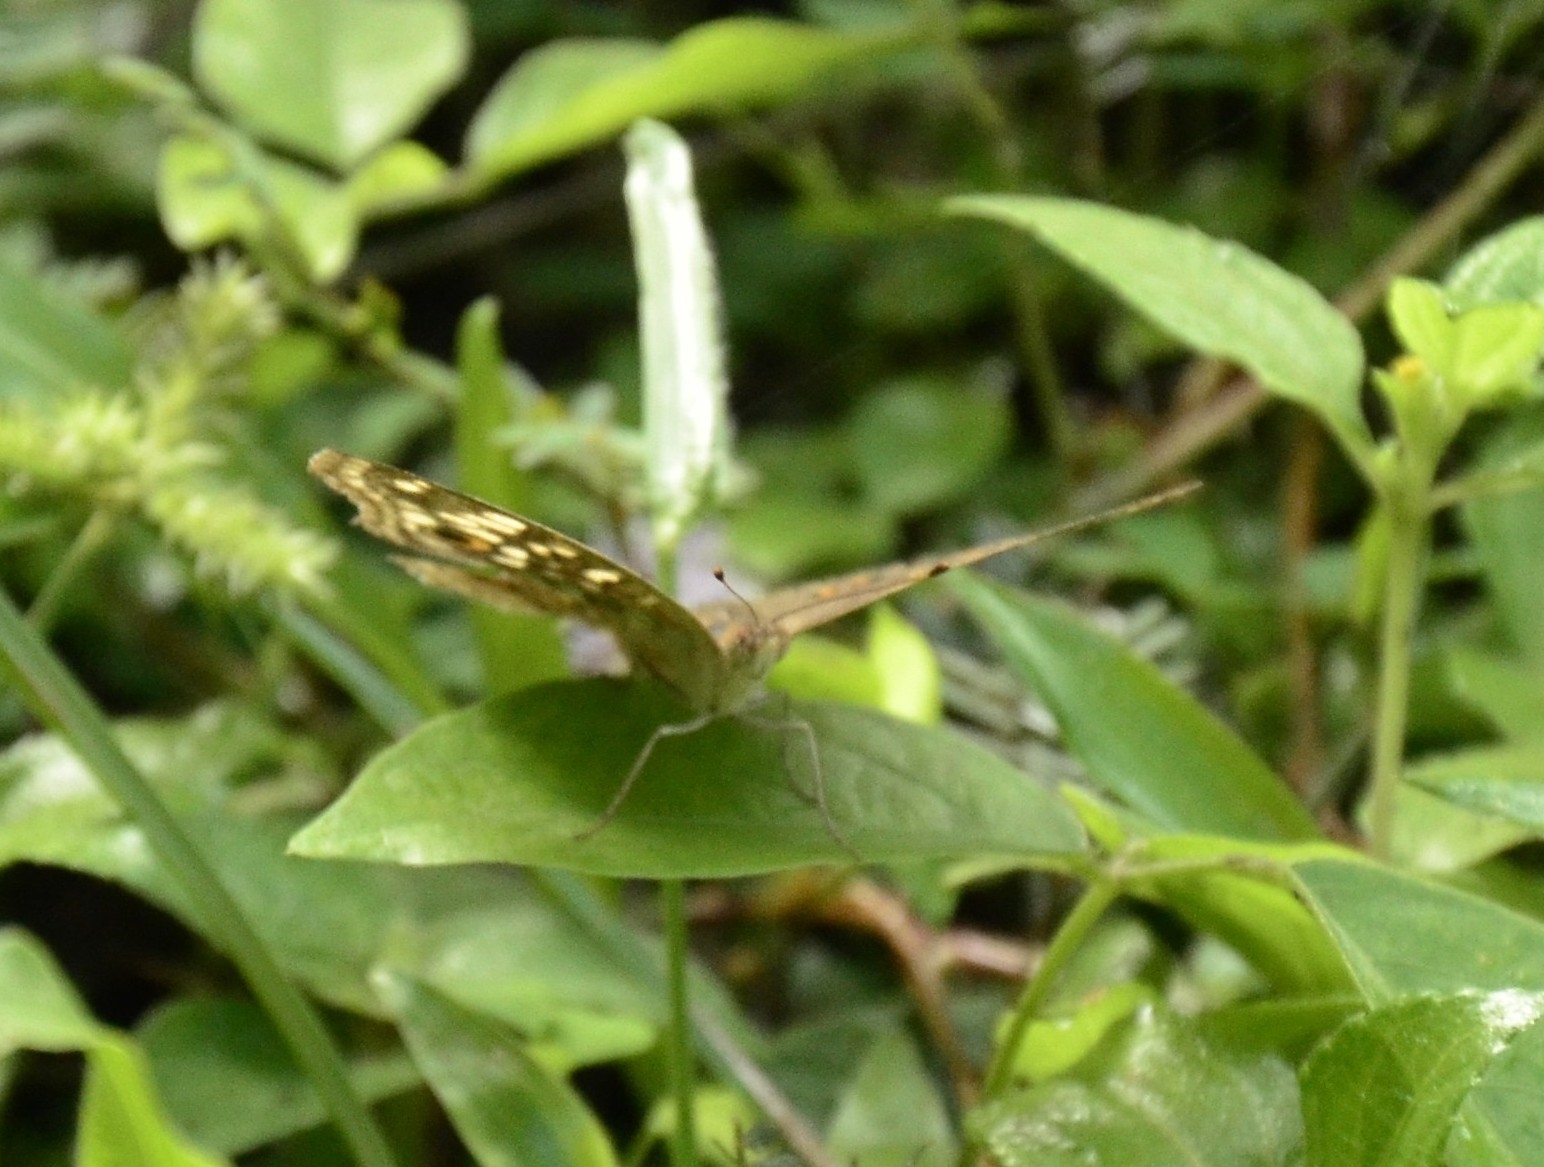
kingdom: Animalia
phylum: Arthropoda
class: Insecta
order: Lepidoptera
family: Nymphalidae
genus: Junonia
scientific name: Junonia lemonias
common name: Lemon pansy
